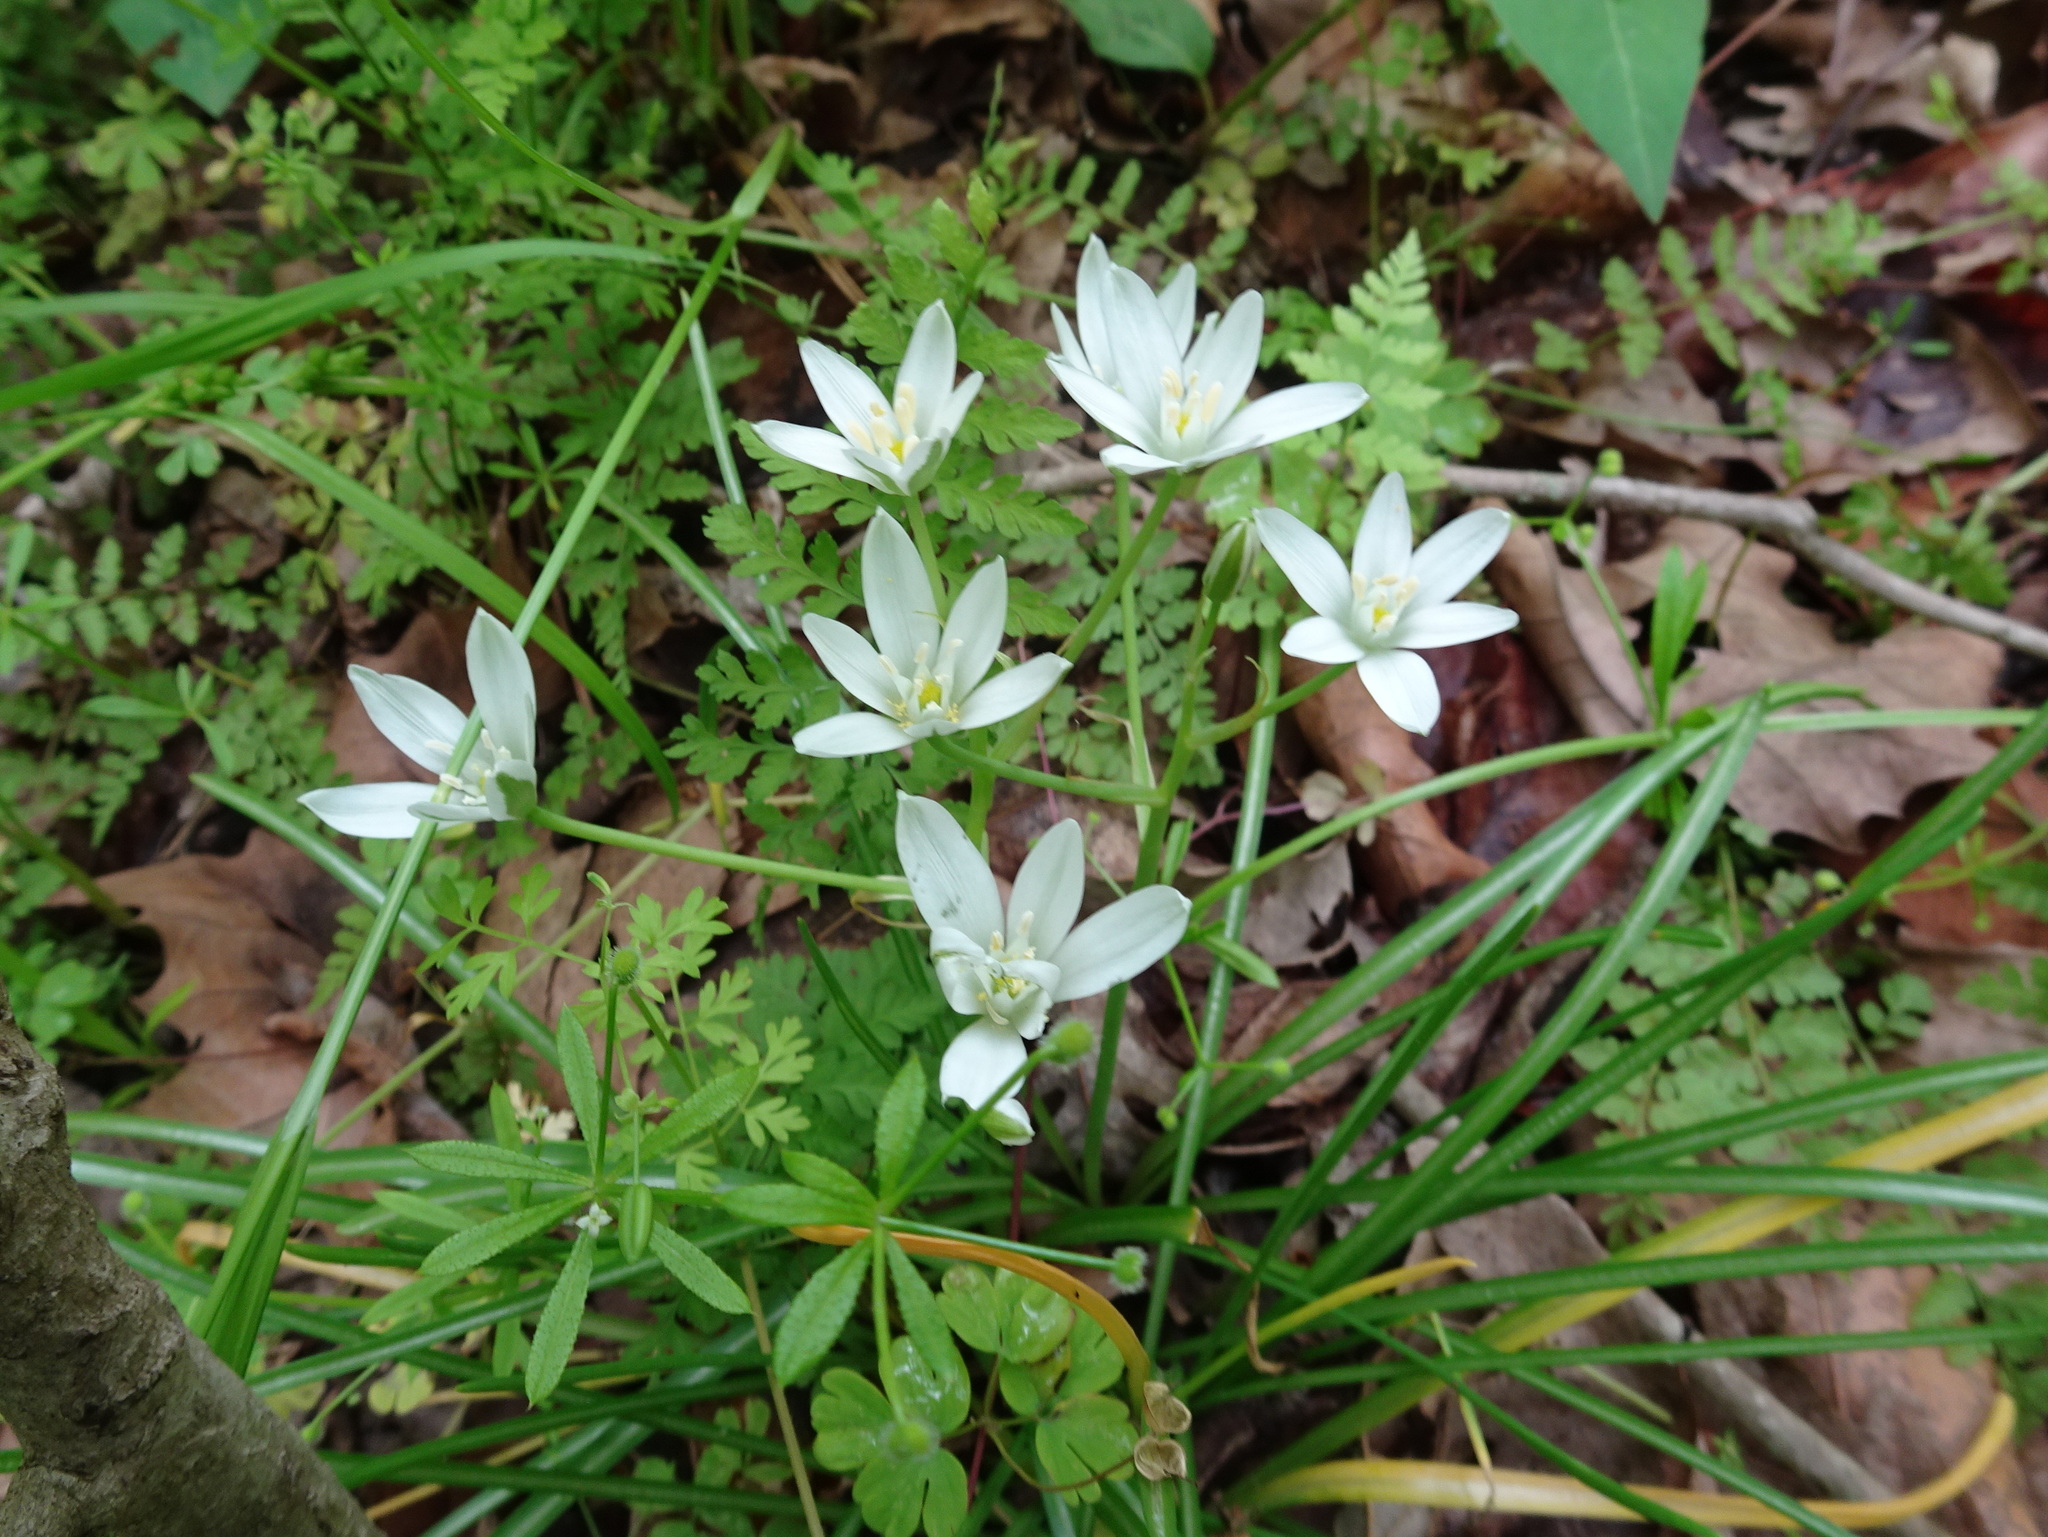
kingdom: Plantae
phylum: Tracheophyta
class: Liliopsida
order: Asparagales
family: Asparagaceae
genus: Ornithogalum
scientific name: Ornithogalum umbellatum
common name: Garden star-of-bethlehem
